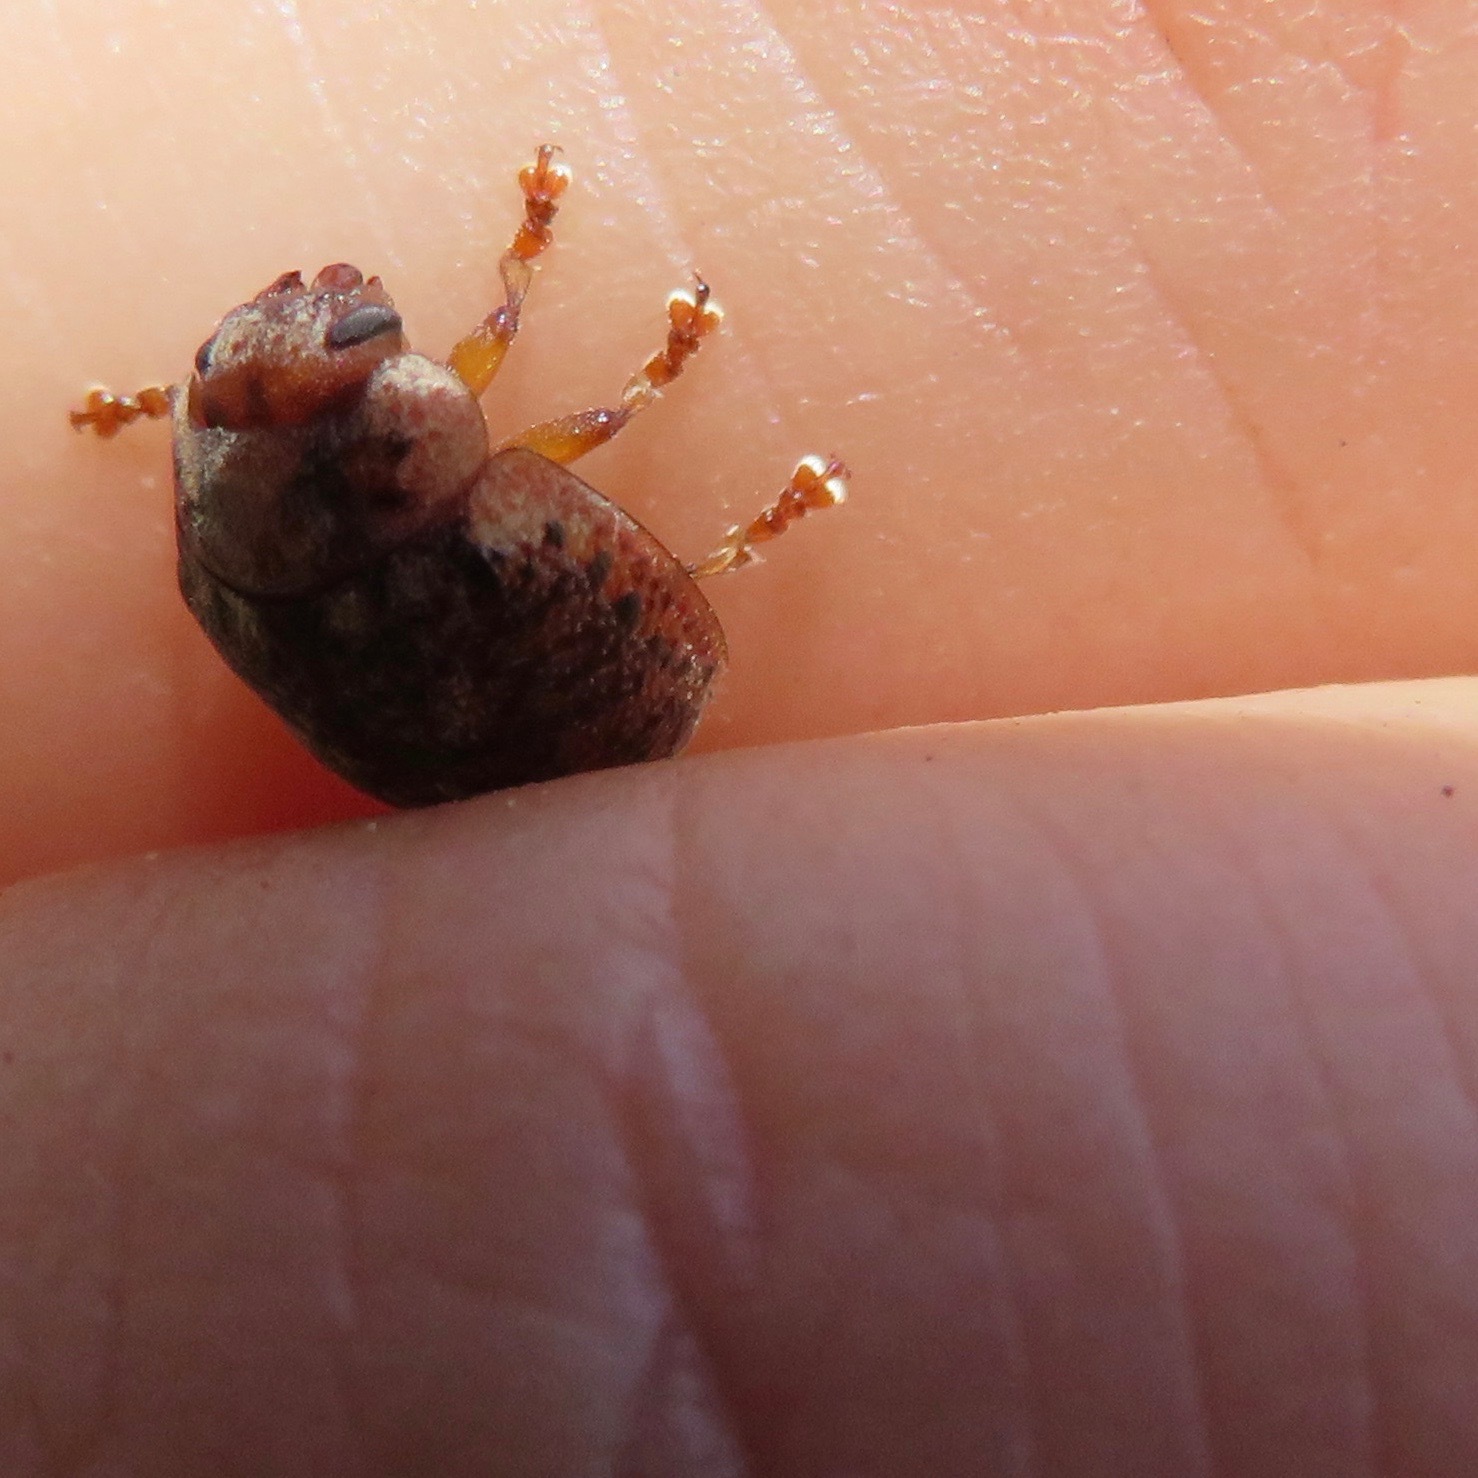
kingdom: Animalia
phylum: Arthropoda
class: Insecta
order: Coleoptera
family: Chrysomelidae
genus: Trachymela
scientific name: Trachymela sloanei
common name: Australian tortoise beetle
